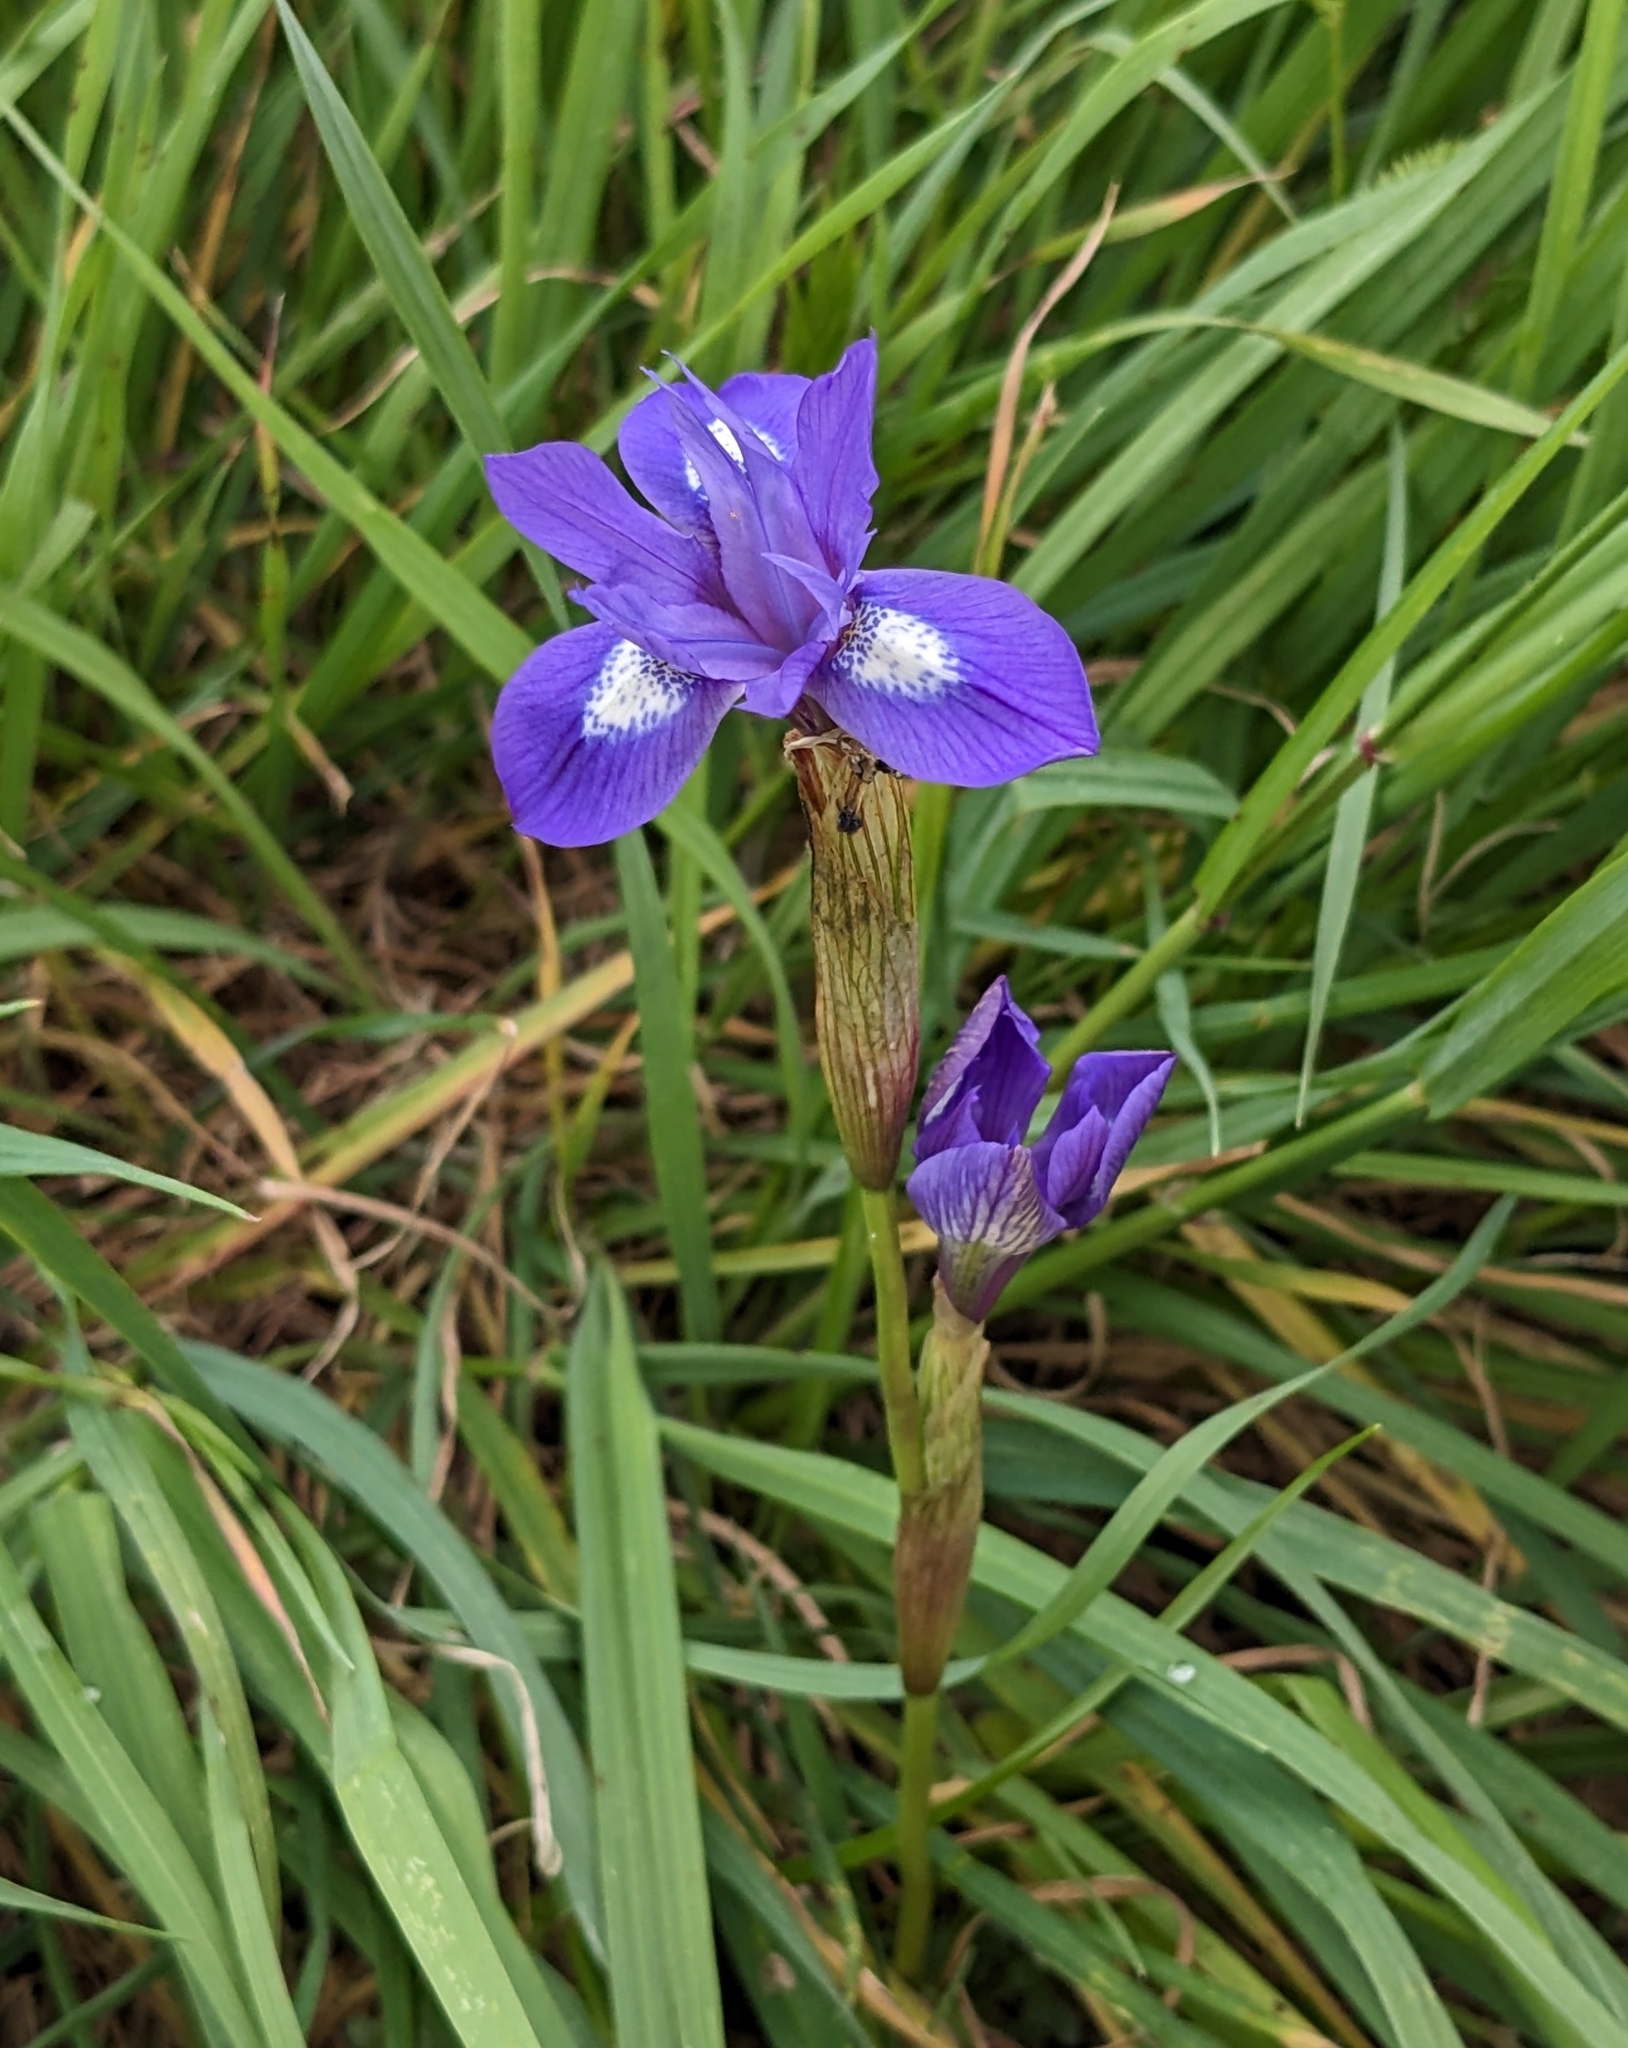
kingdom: Plantae
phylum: Tracheophyta
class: Liliopsida
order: Asparagales
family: Iridaceae
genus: Moraea
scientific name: Moraea sisyrinchium
